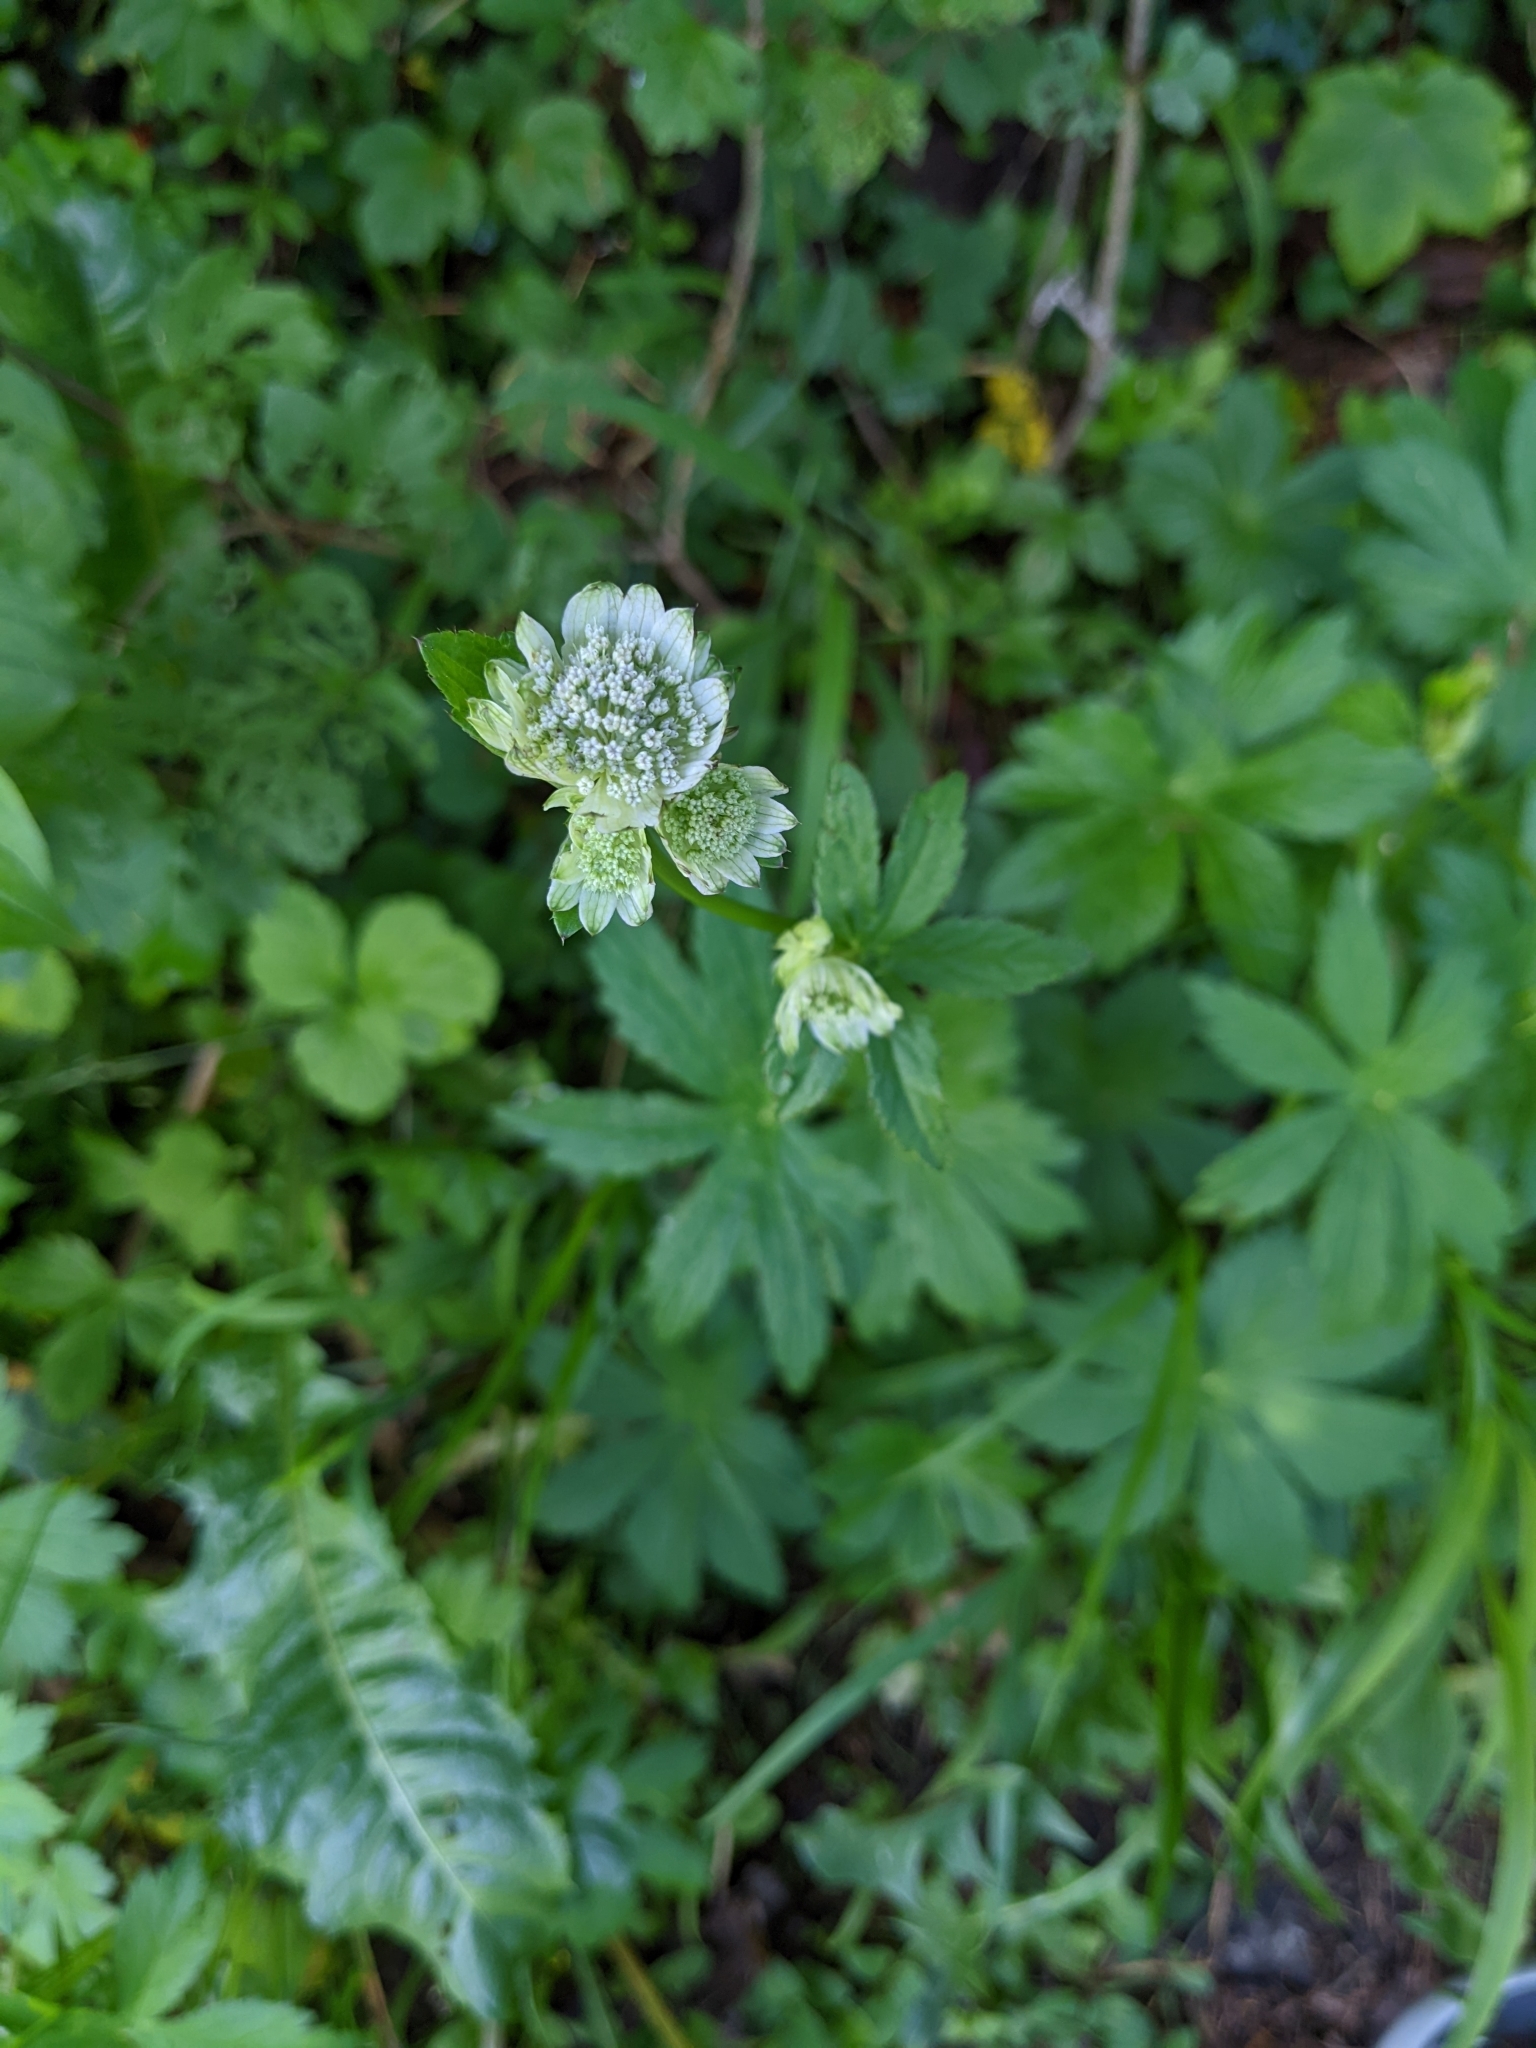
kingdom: Plantae
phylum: Tracheophyta
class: Magnoliopsida
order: Apiales
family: Apiaceae
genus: Astrantia
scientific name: Astrantia major
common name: Greater masterwort
